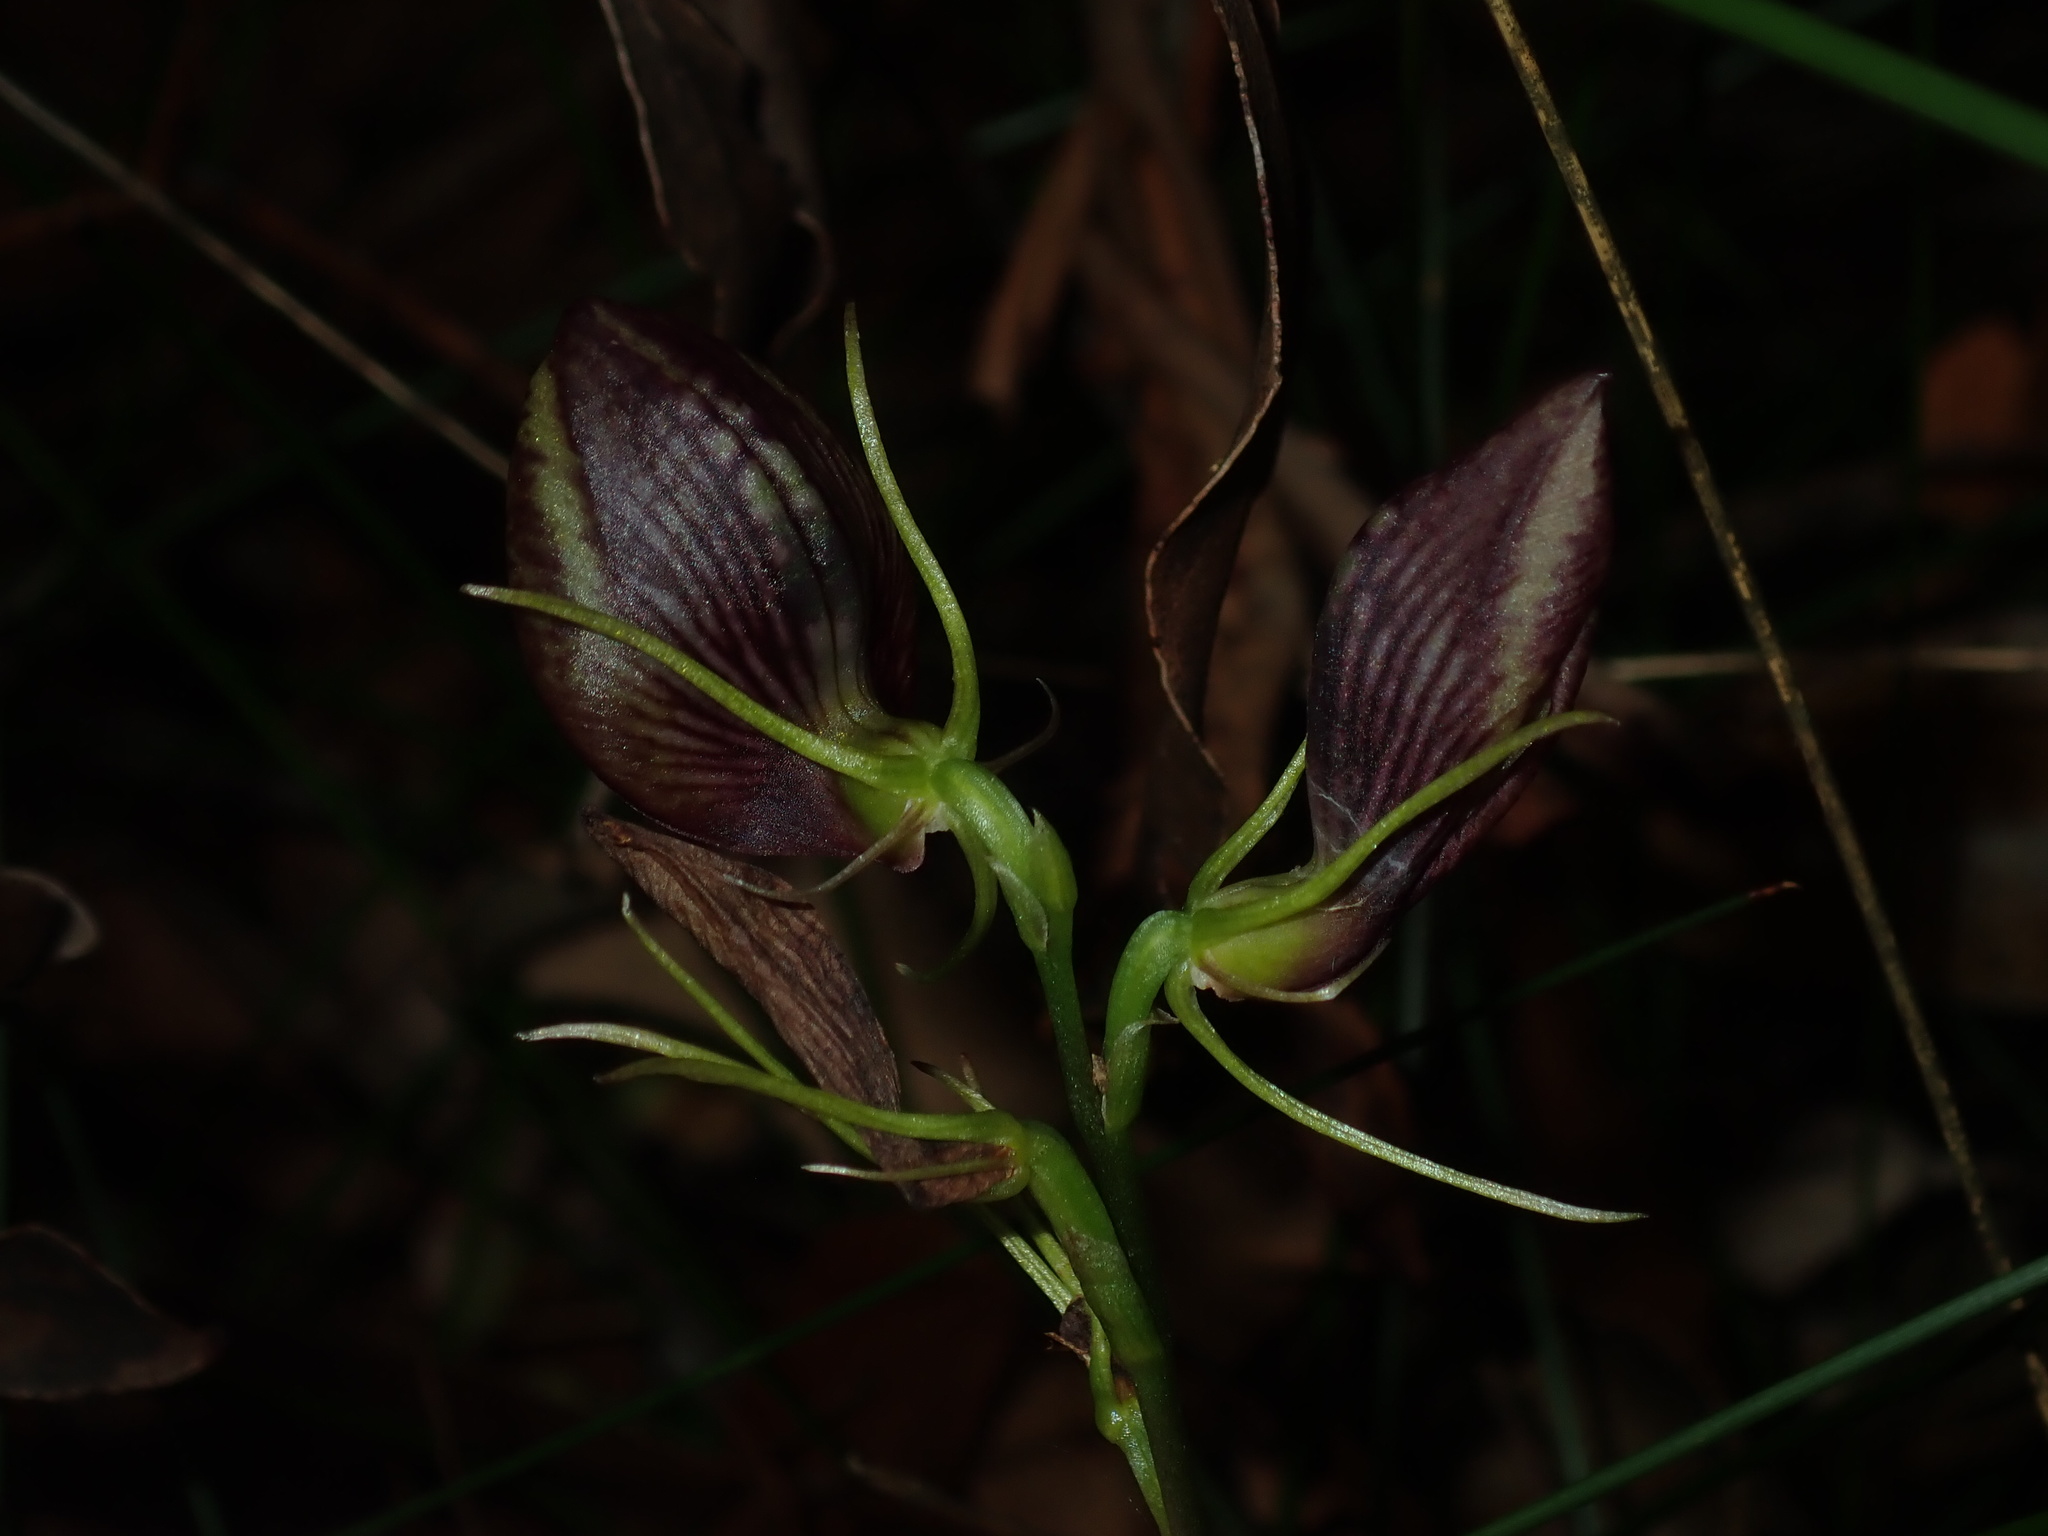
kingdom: Plantae
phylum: Tracheophyta
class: Liliopsida
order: Asparagales
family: Orchidaceae
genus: Cryptostylis
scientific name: Cryptostylis erecta
